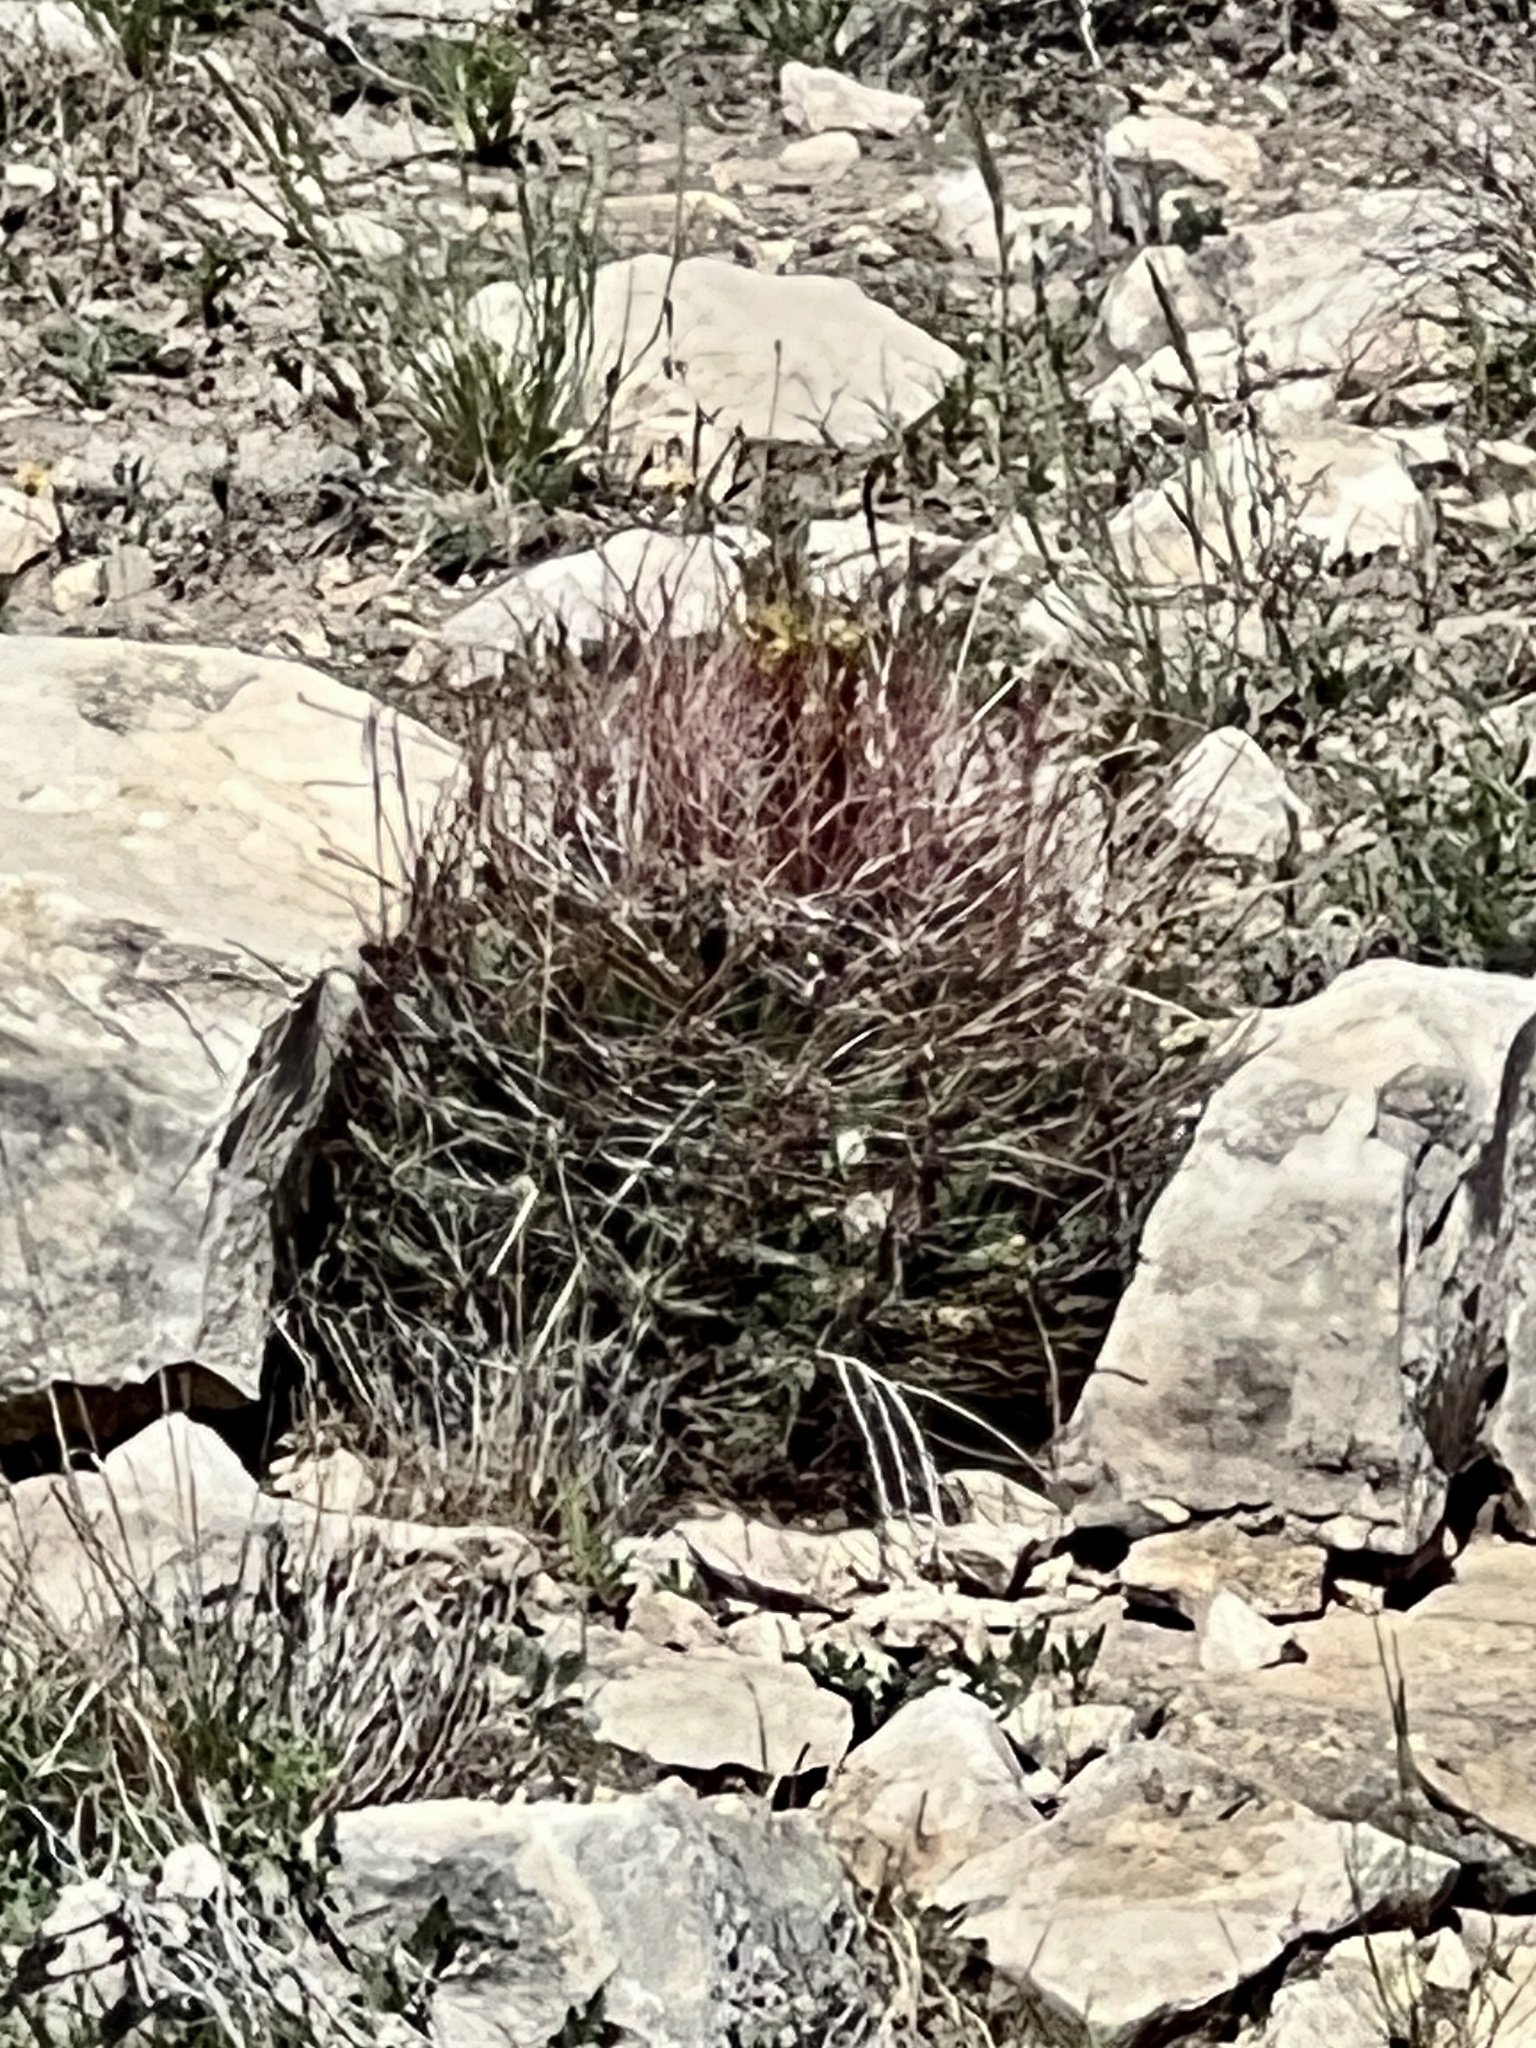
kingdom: Plantae
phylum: Tracheophyta
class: Magnoliopsida
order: Caryophyllales
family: Cactaceae
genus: Bisnaga
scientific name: Bisnaga hamatacantha
